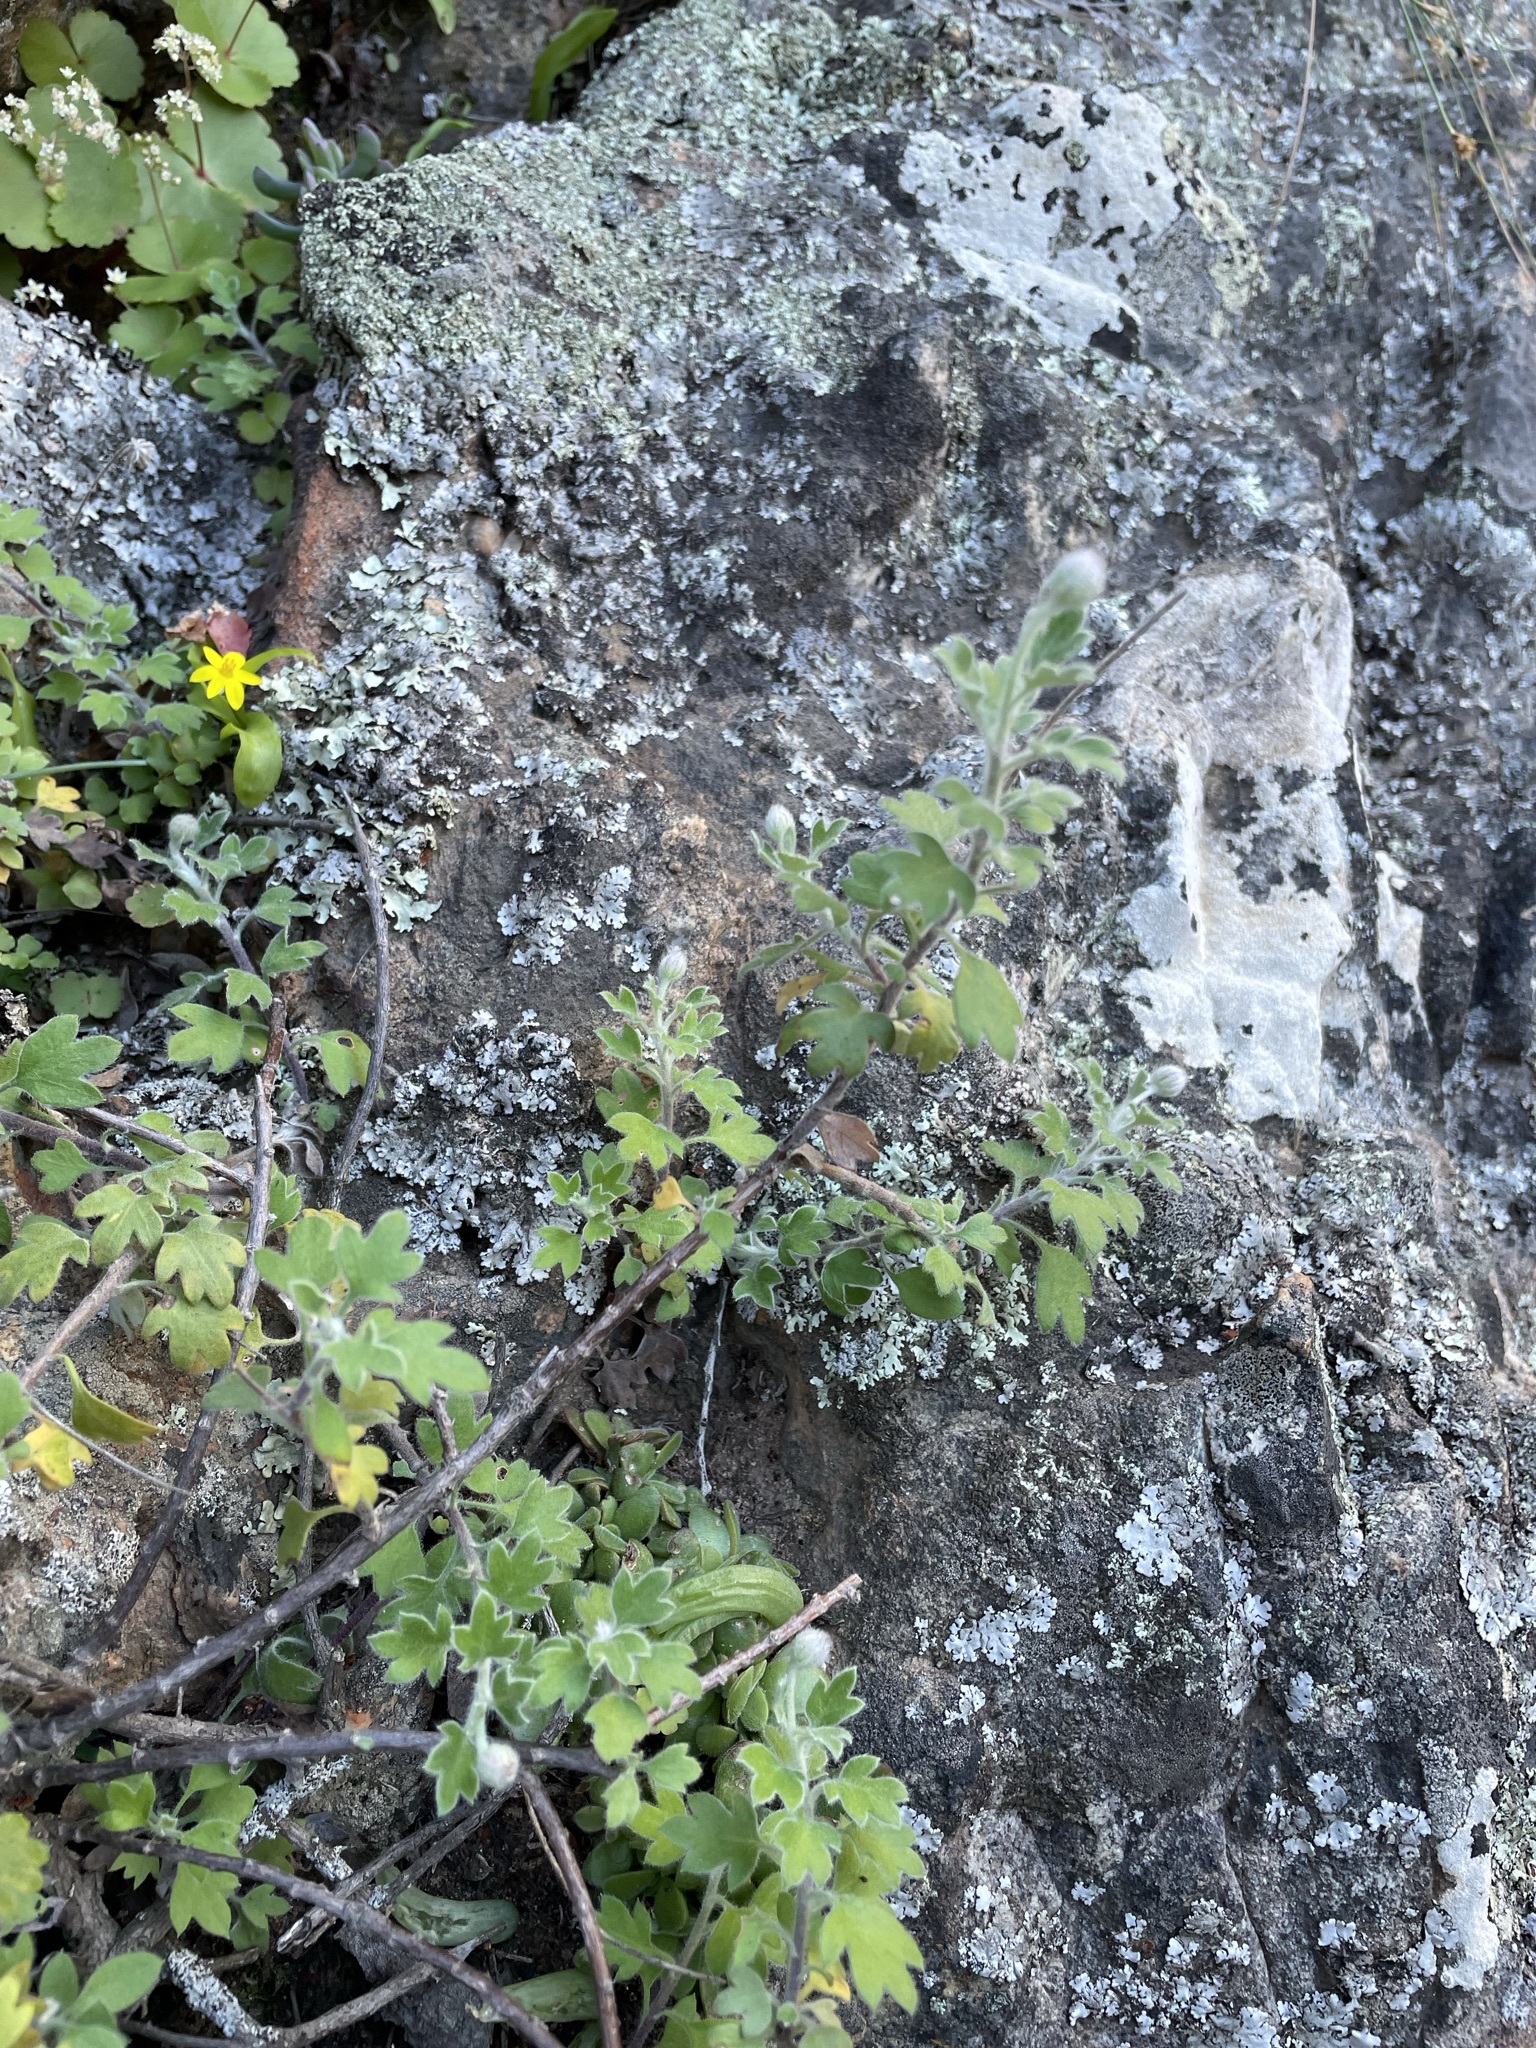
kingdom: Plantae
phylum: Tracheophyta
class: Magnoliopsida
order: Asterales
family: Asteraceae
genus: Lidbeckia
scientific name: Lidbeckia quinqueloba
